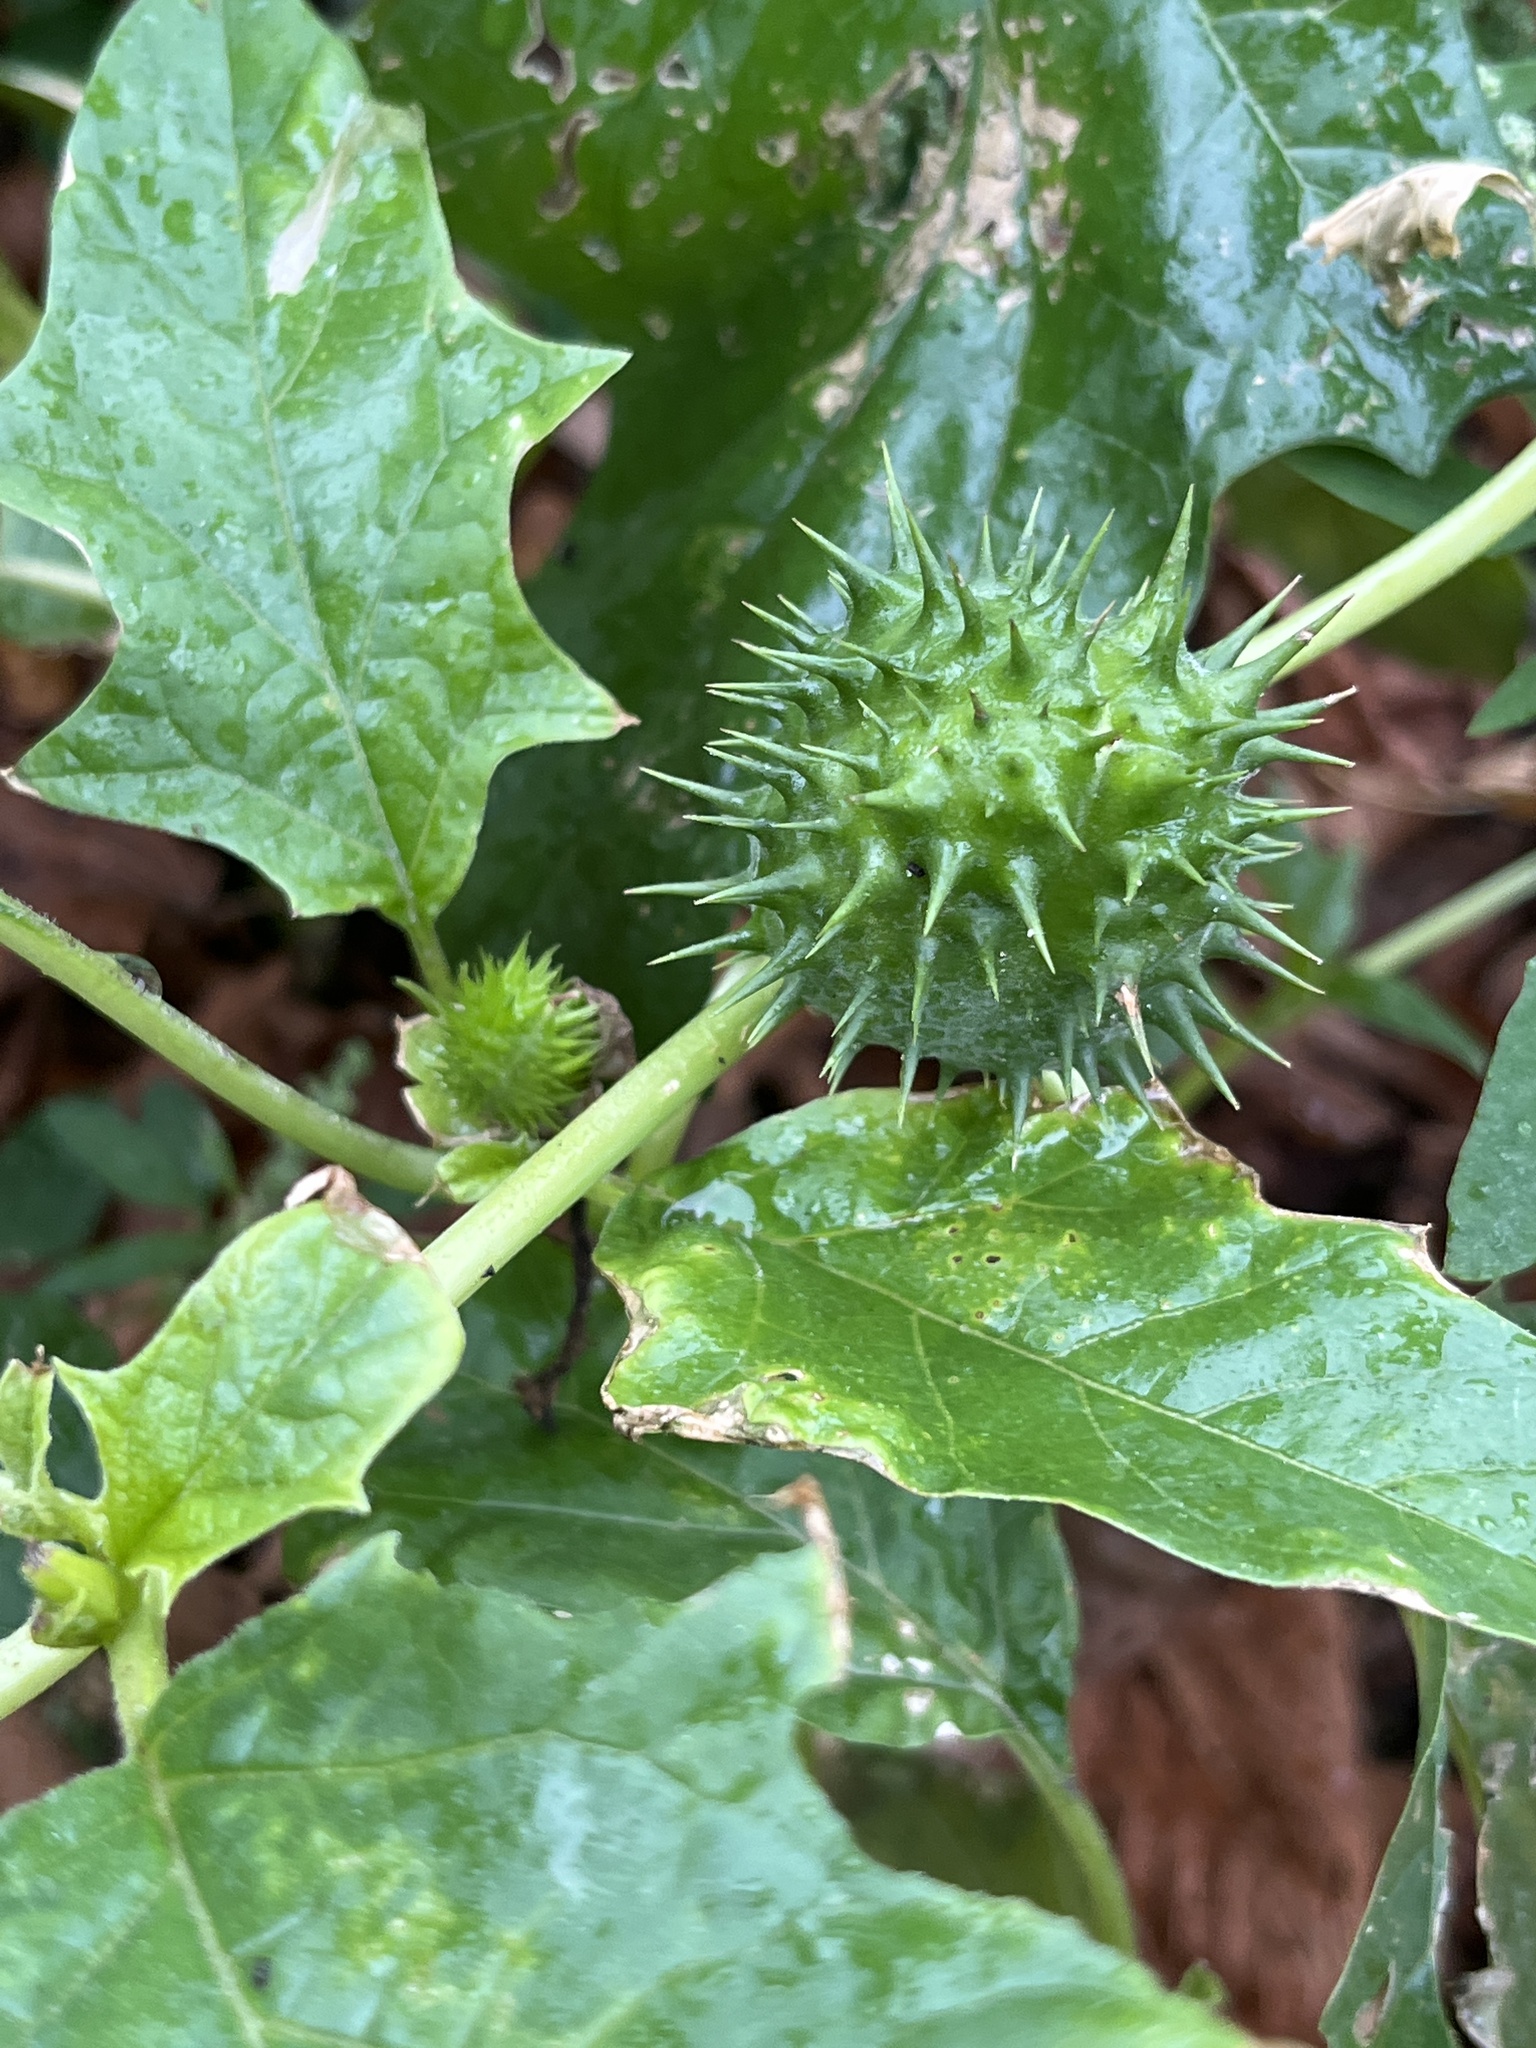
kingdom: Plantae
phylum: Tracheophyta
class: Magnoliopsida
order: Solanales
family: Solanaceae
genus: Datura
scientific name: Datura stramonium
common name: Thorn-apple
